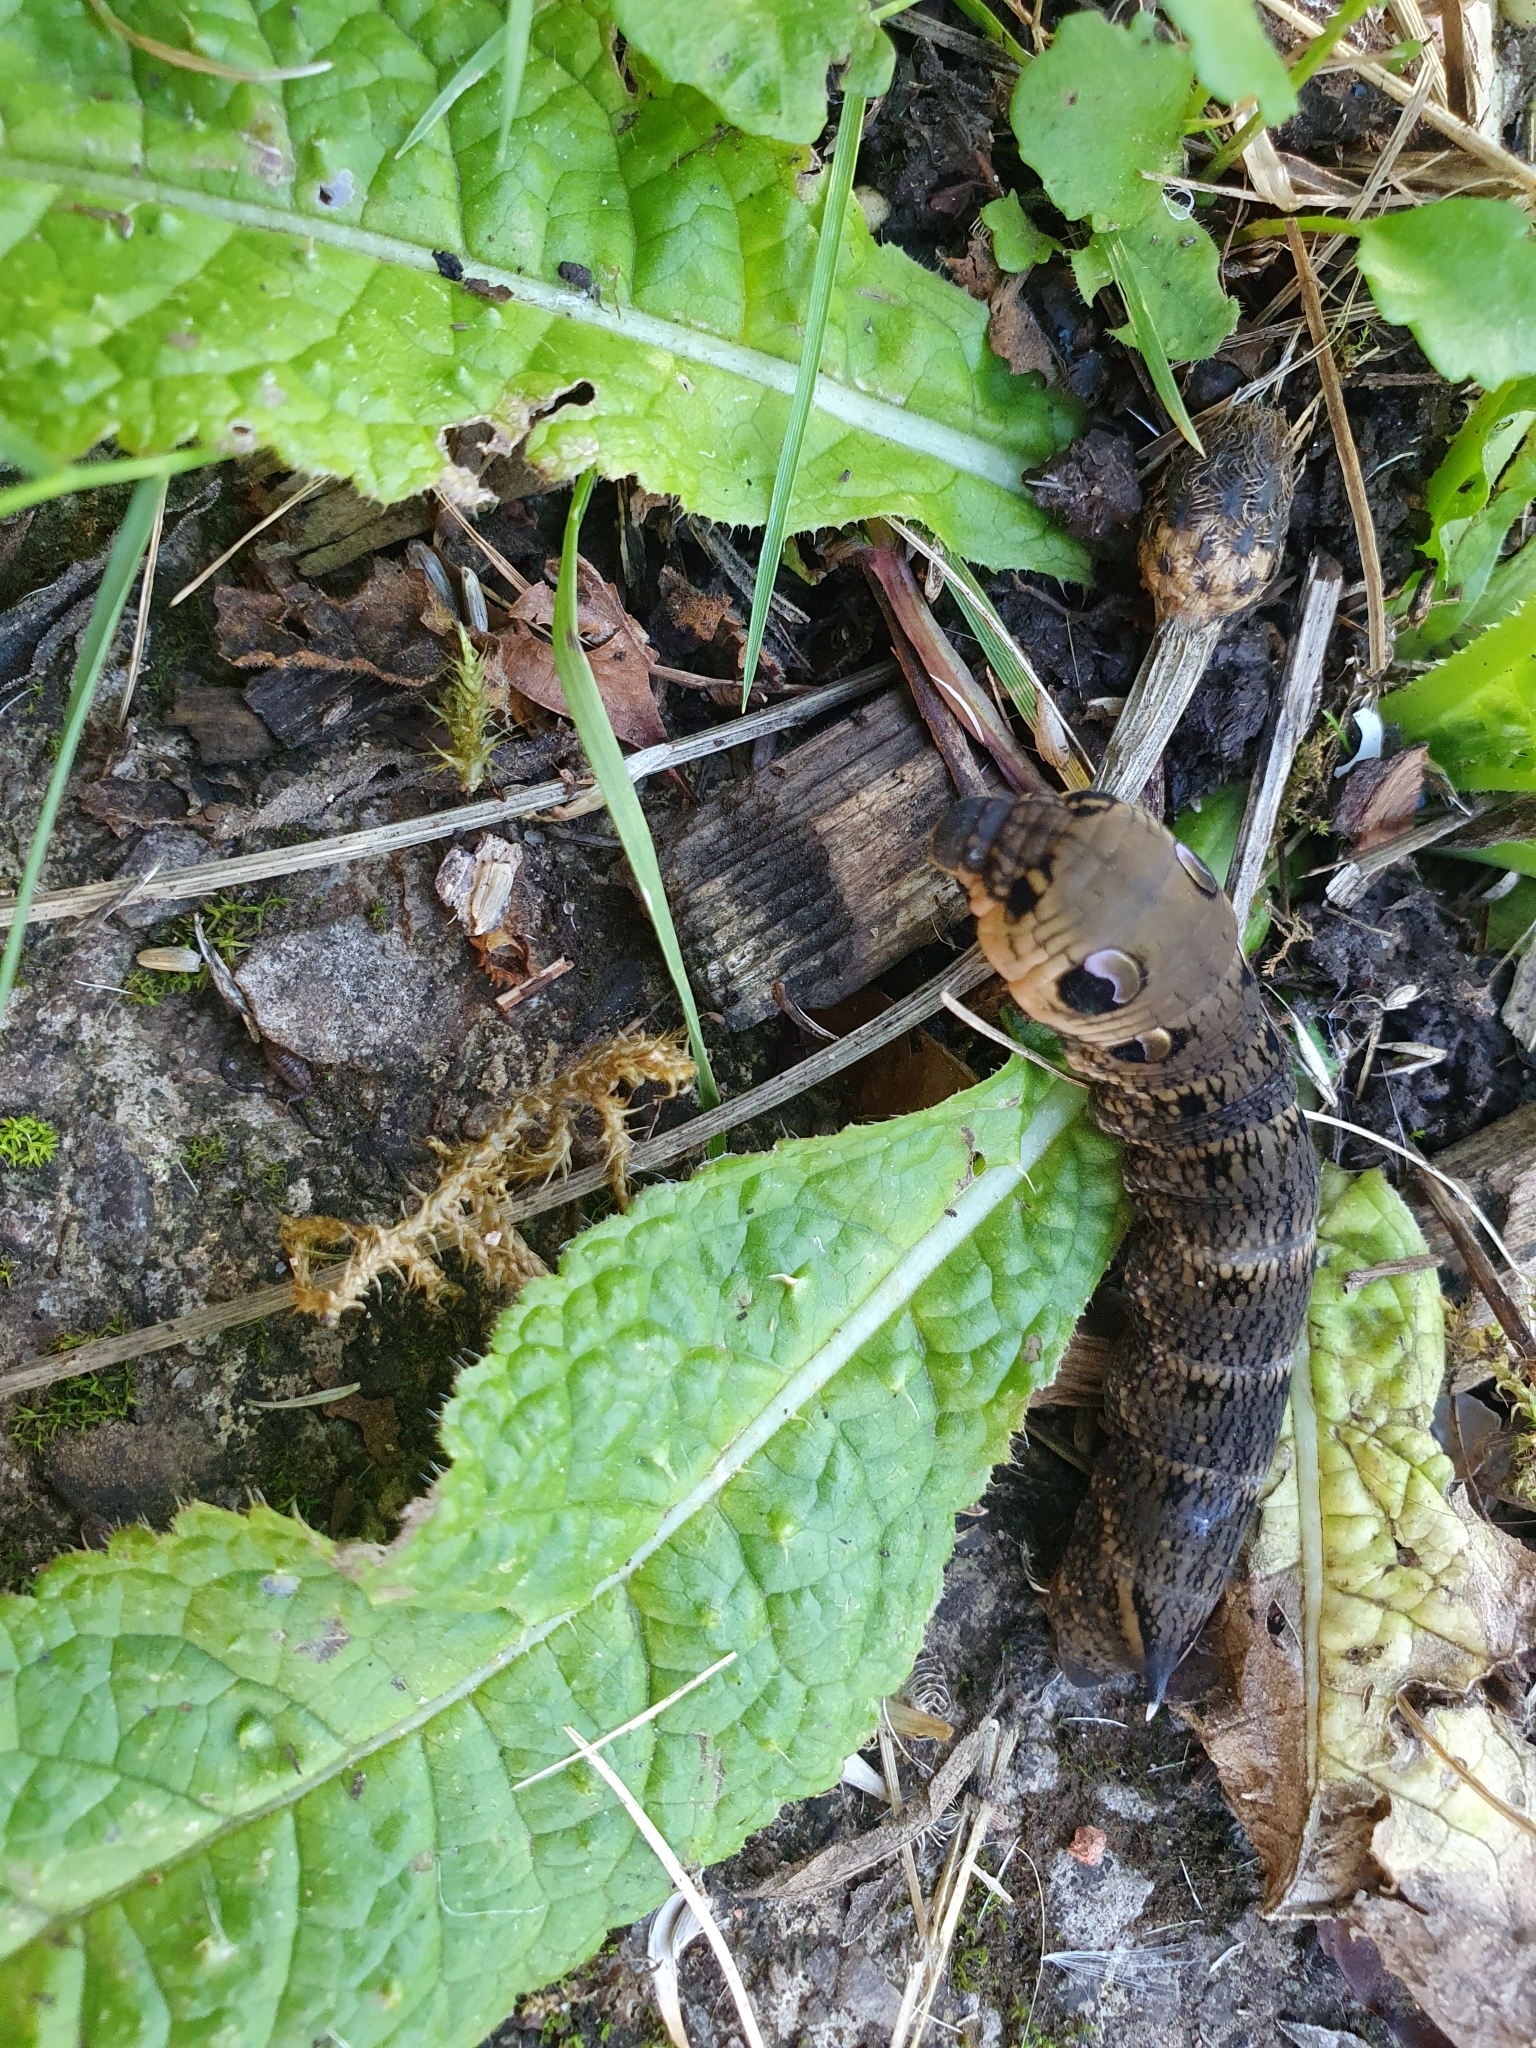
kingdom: Animalia
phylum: Arthropoda
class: Insecta
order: Lepidoptera
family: Sphingidae
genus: Deilephila
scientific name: Deilephila elpenor
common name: Elephant hawk-moth
